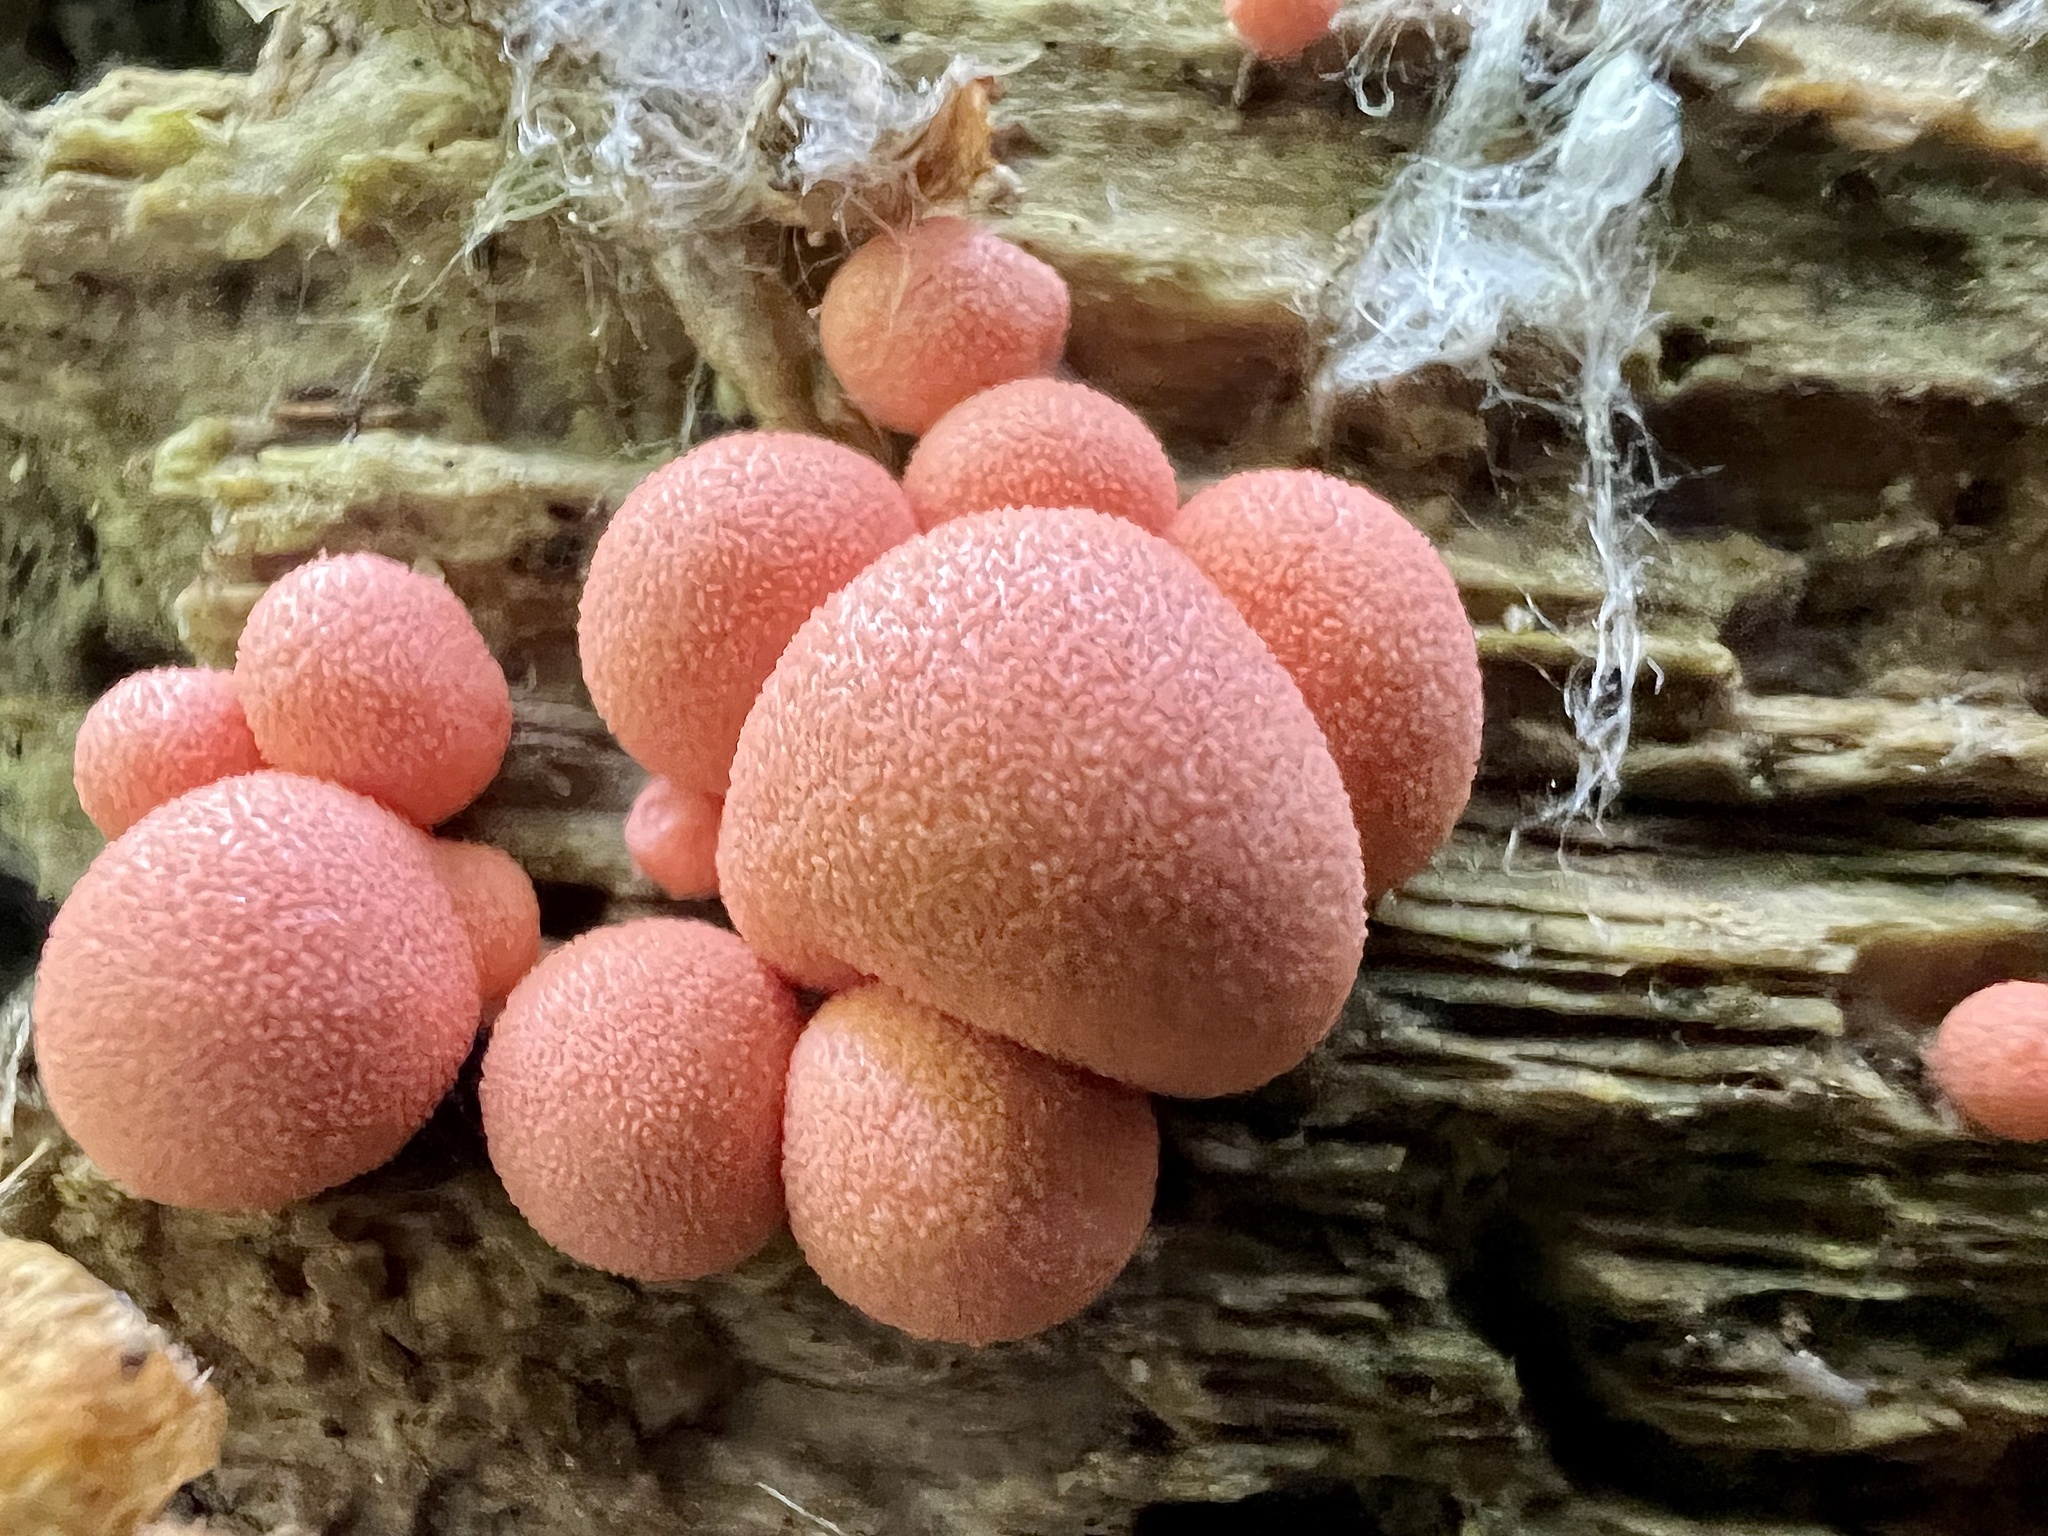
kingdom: Protozoa
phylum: Mycetozoa
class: Myxomycetes
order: Cribrariales
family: Tubiferaceae
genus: Lycogala
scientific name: Lycogala epidendrum
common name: Wolf's milk
